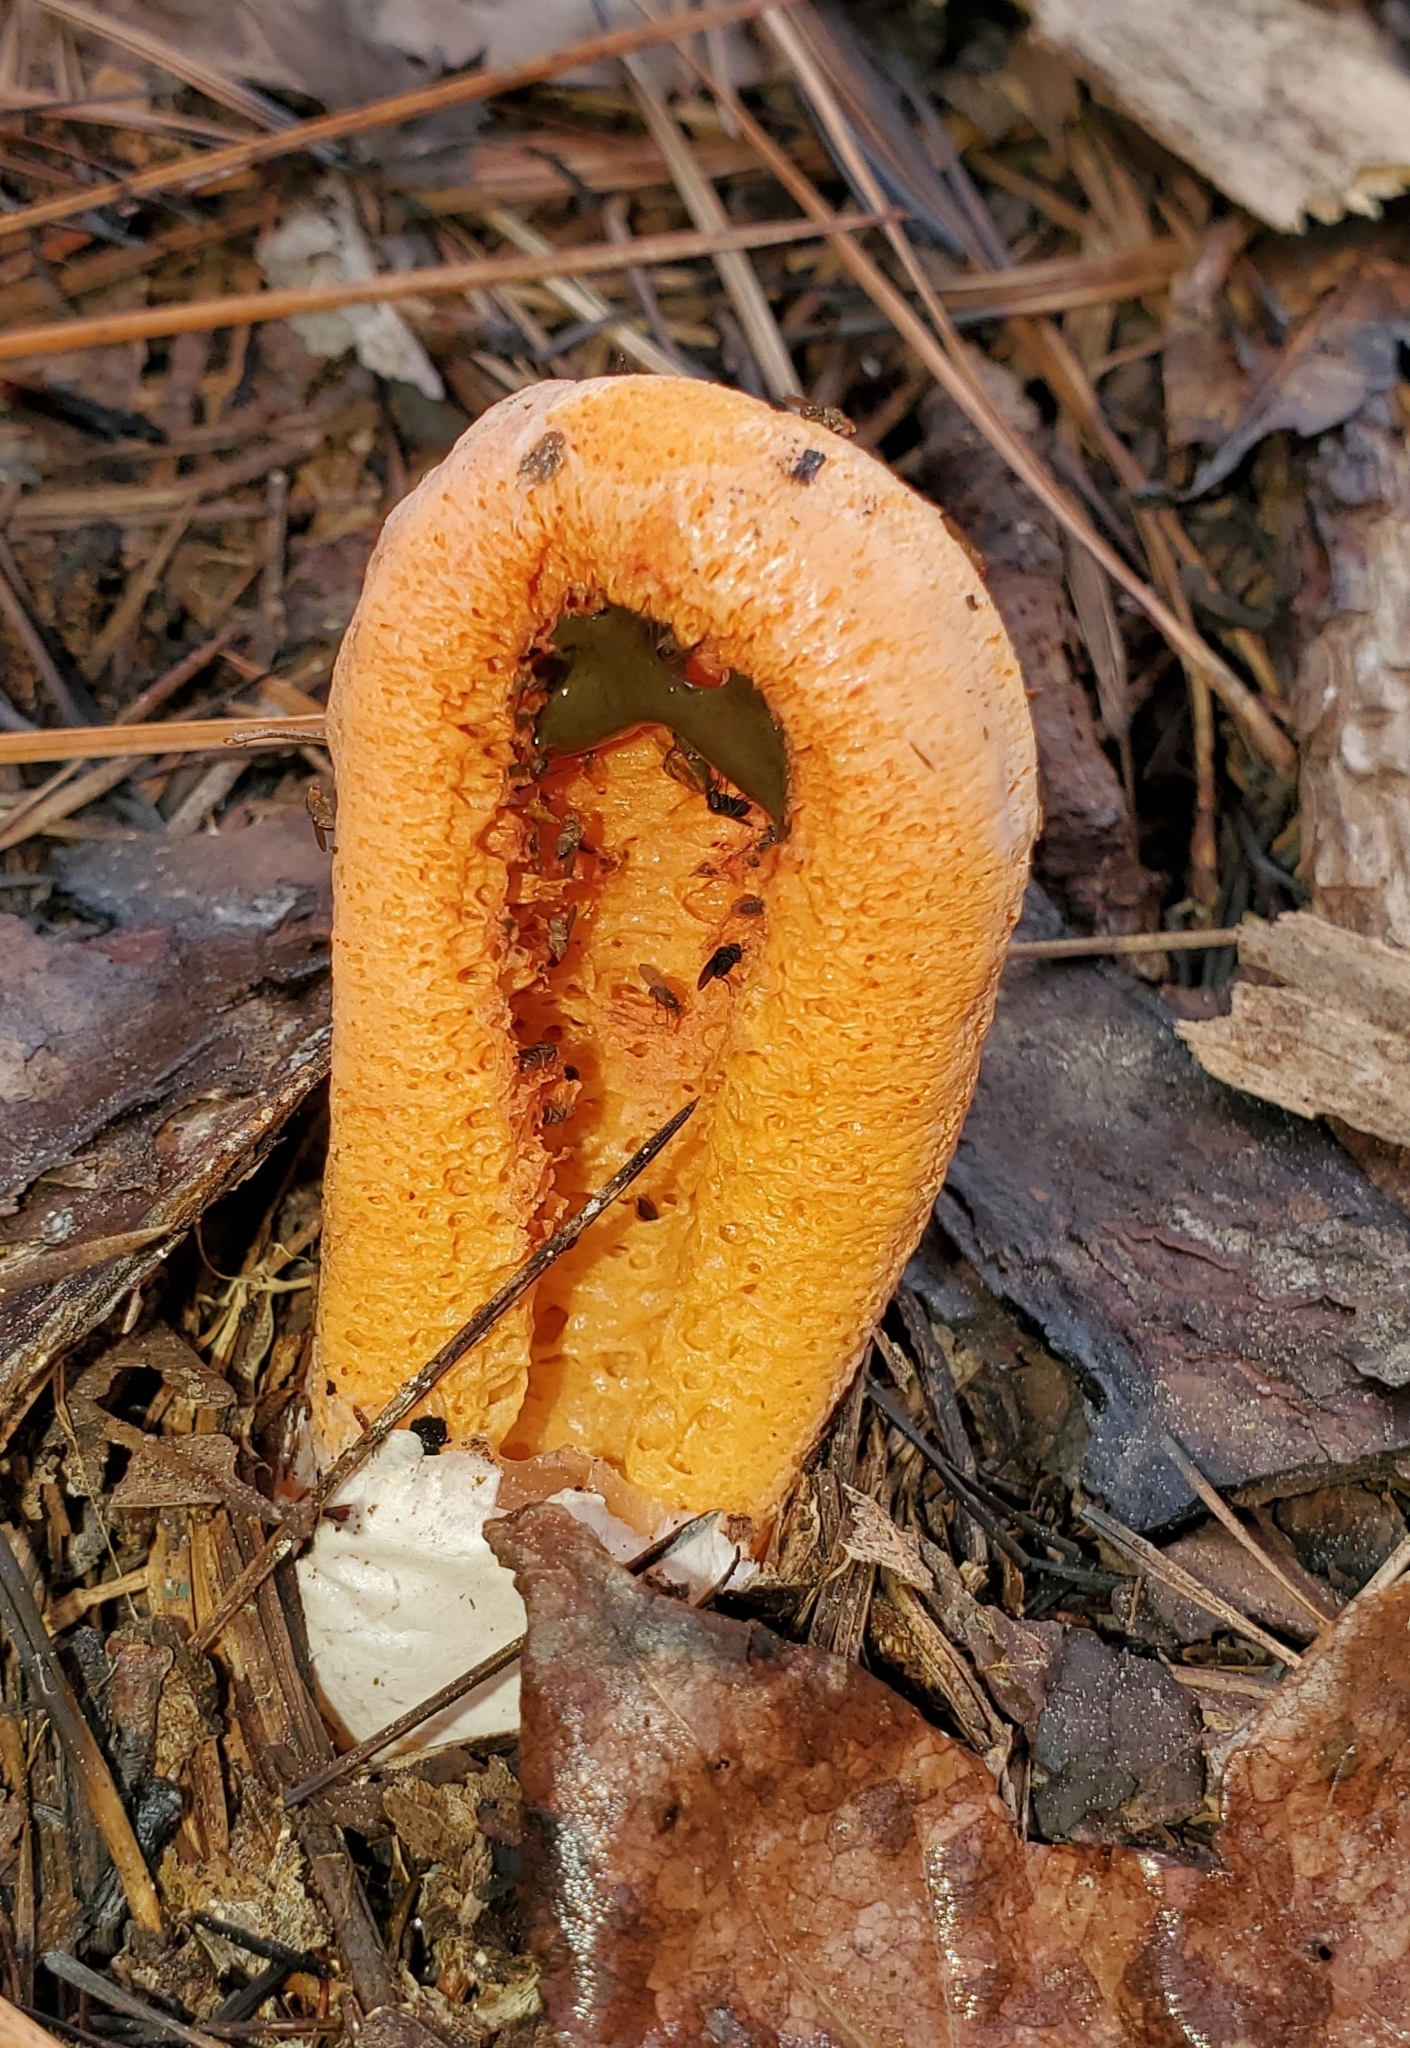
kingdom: Fungi
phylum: Basidiomycota
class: Agaricomycetes
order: Phallales
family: Phallaceae
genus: Clathrus
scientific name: Clathrus columnatus
